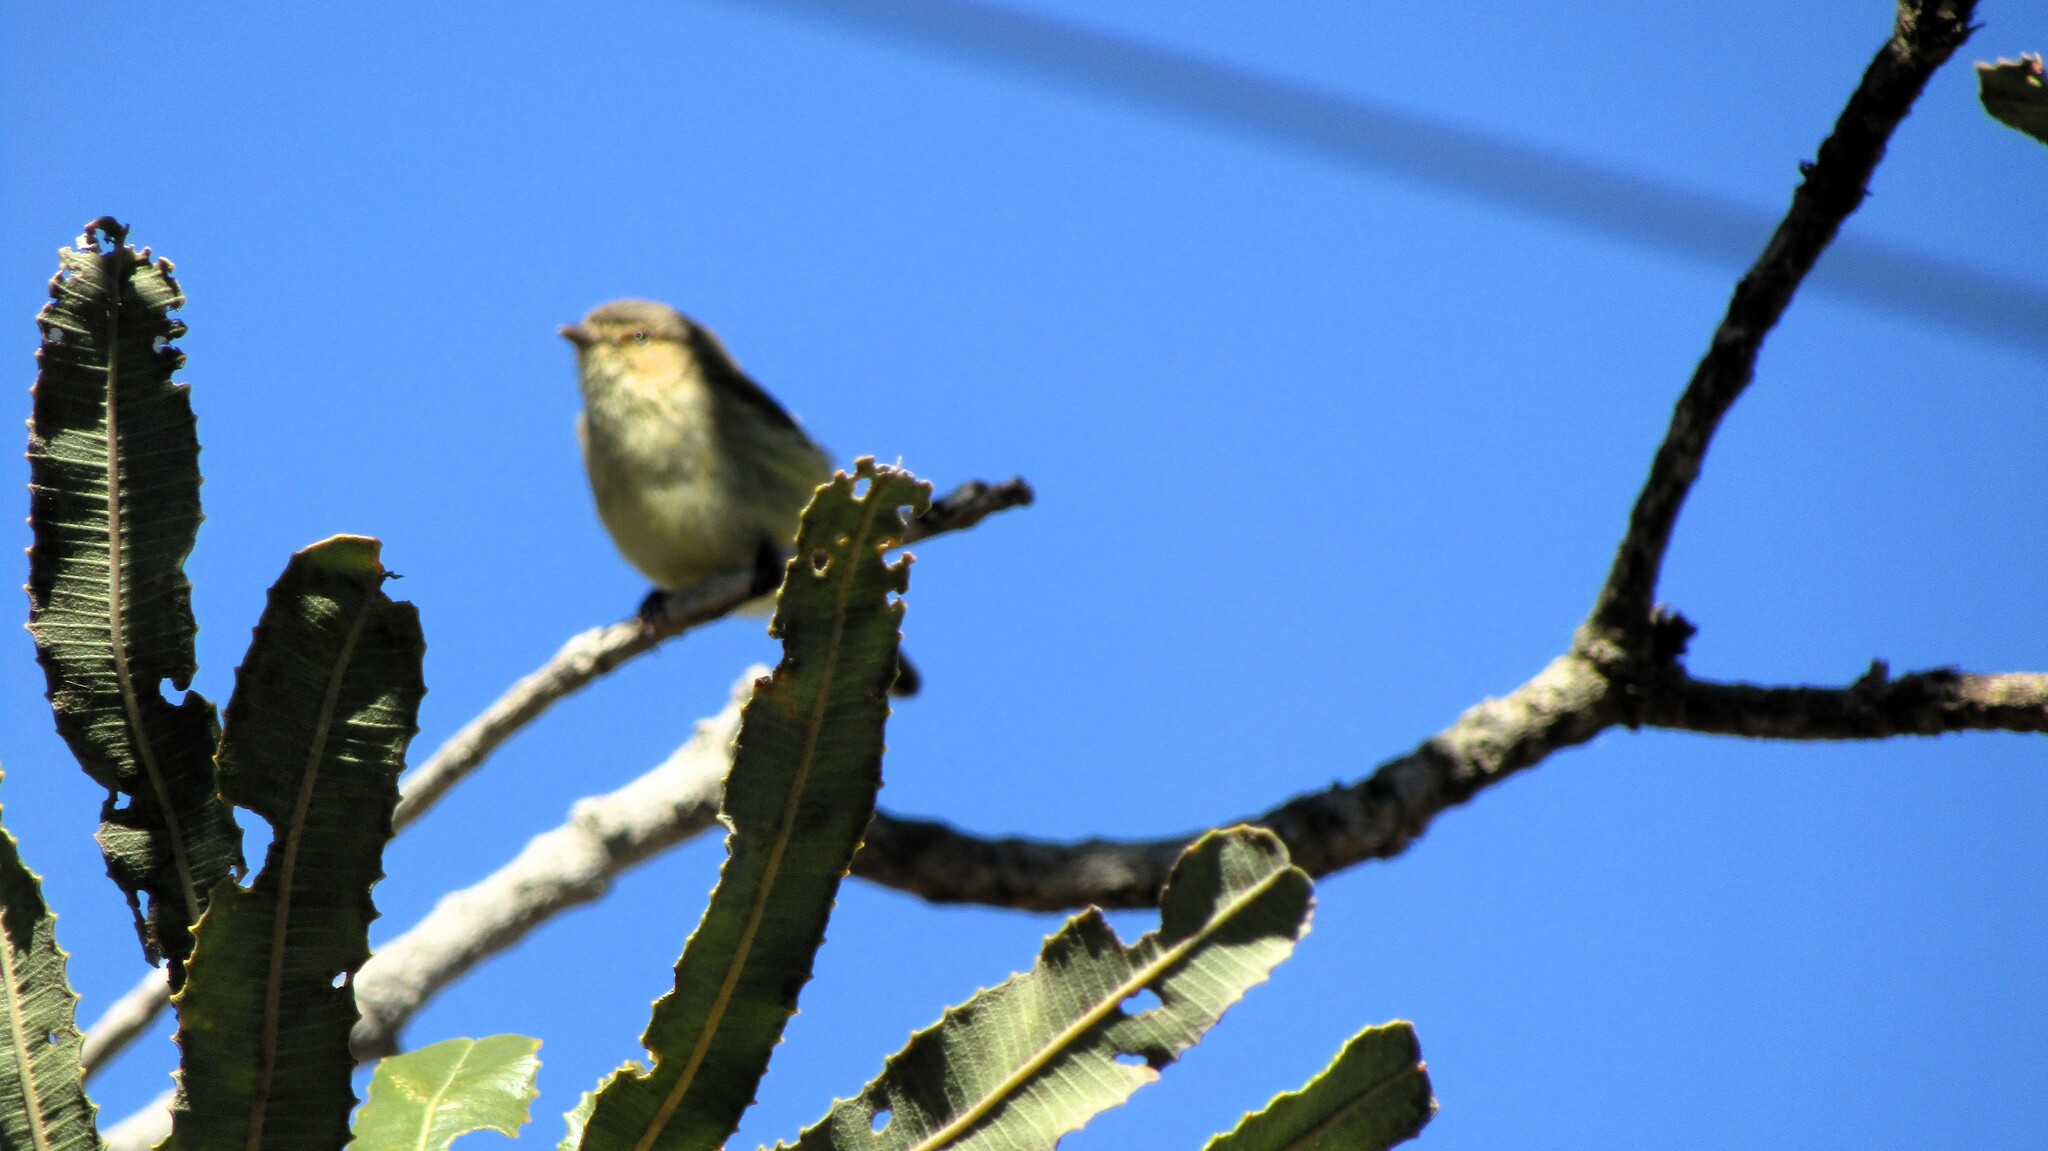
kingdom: Animalia
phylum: Chordata
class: Aves
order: Passeriformes
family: Acanthizidae
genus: Smicrornis
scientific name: Smicrornis brevirostris
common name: Weebill
